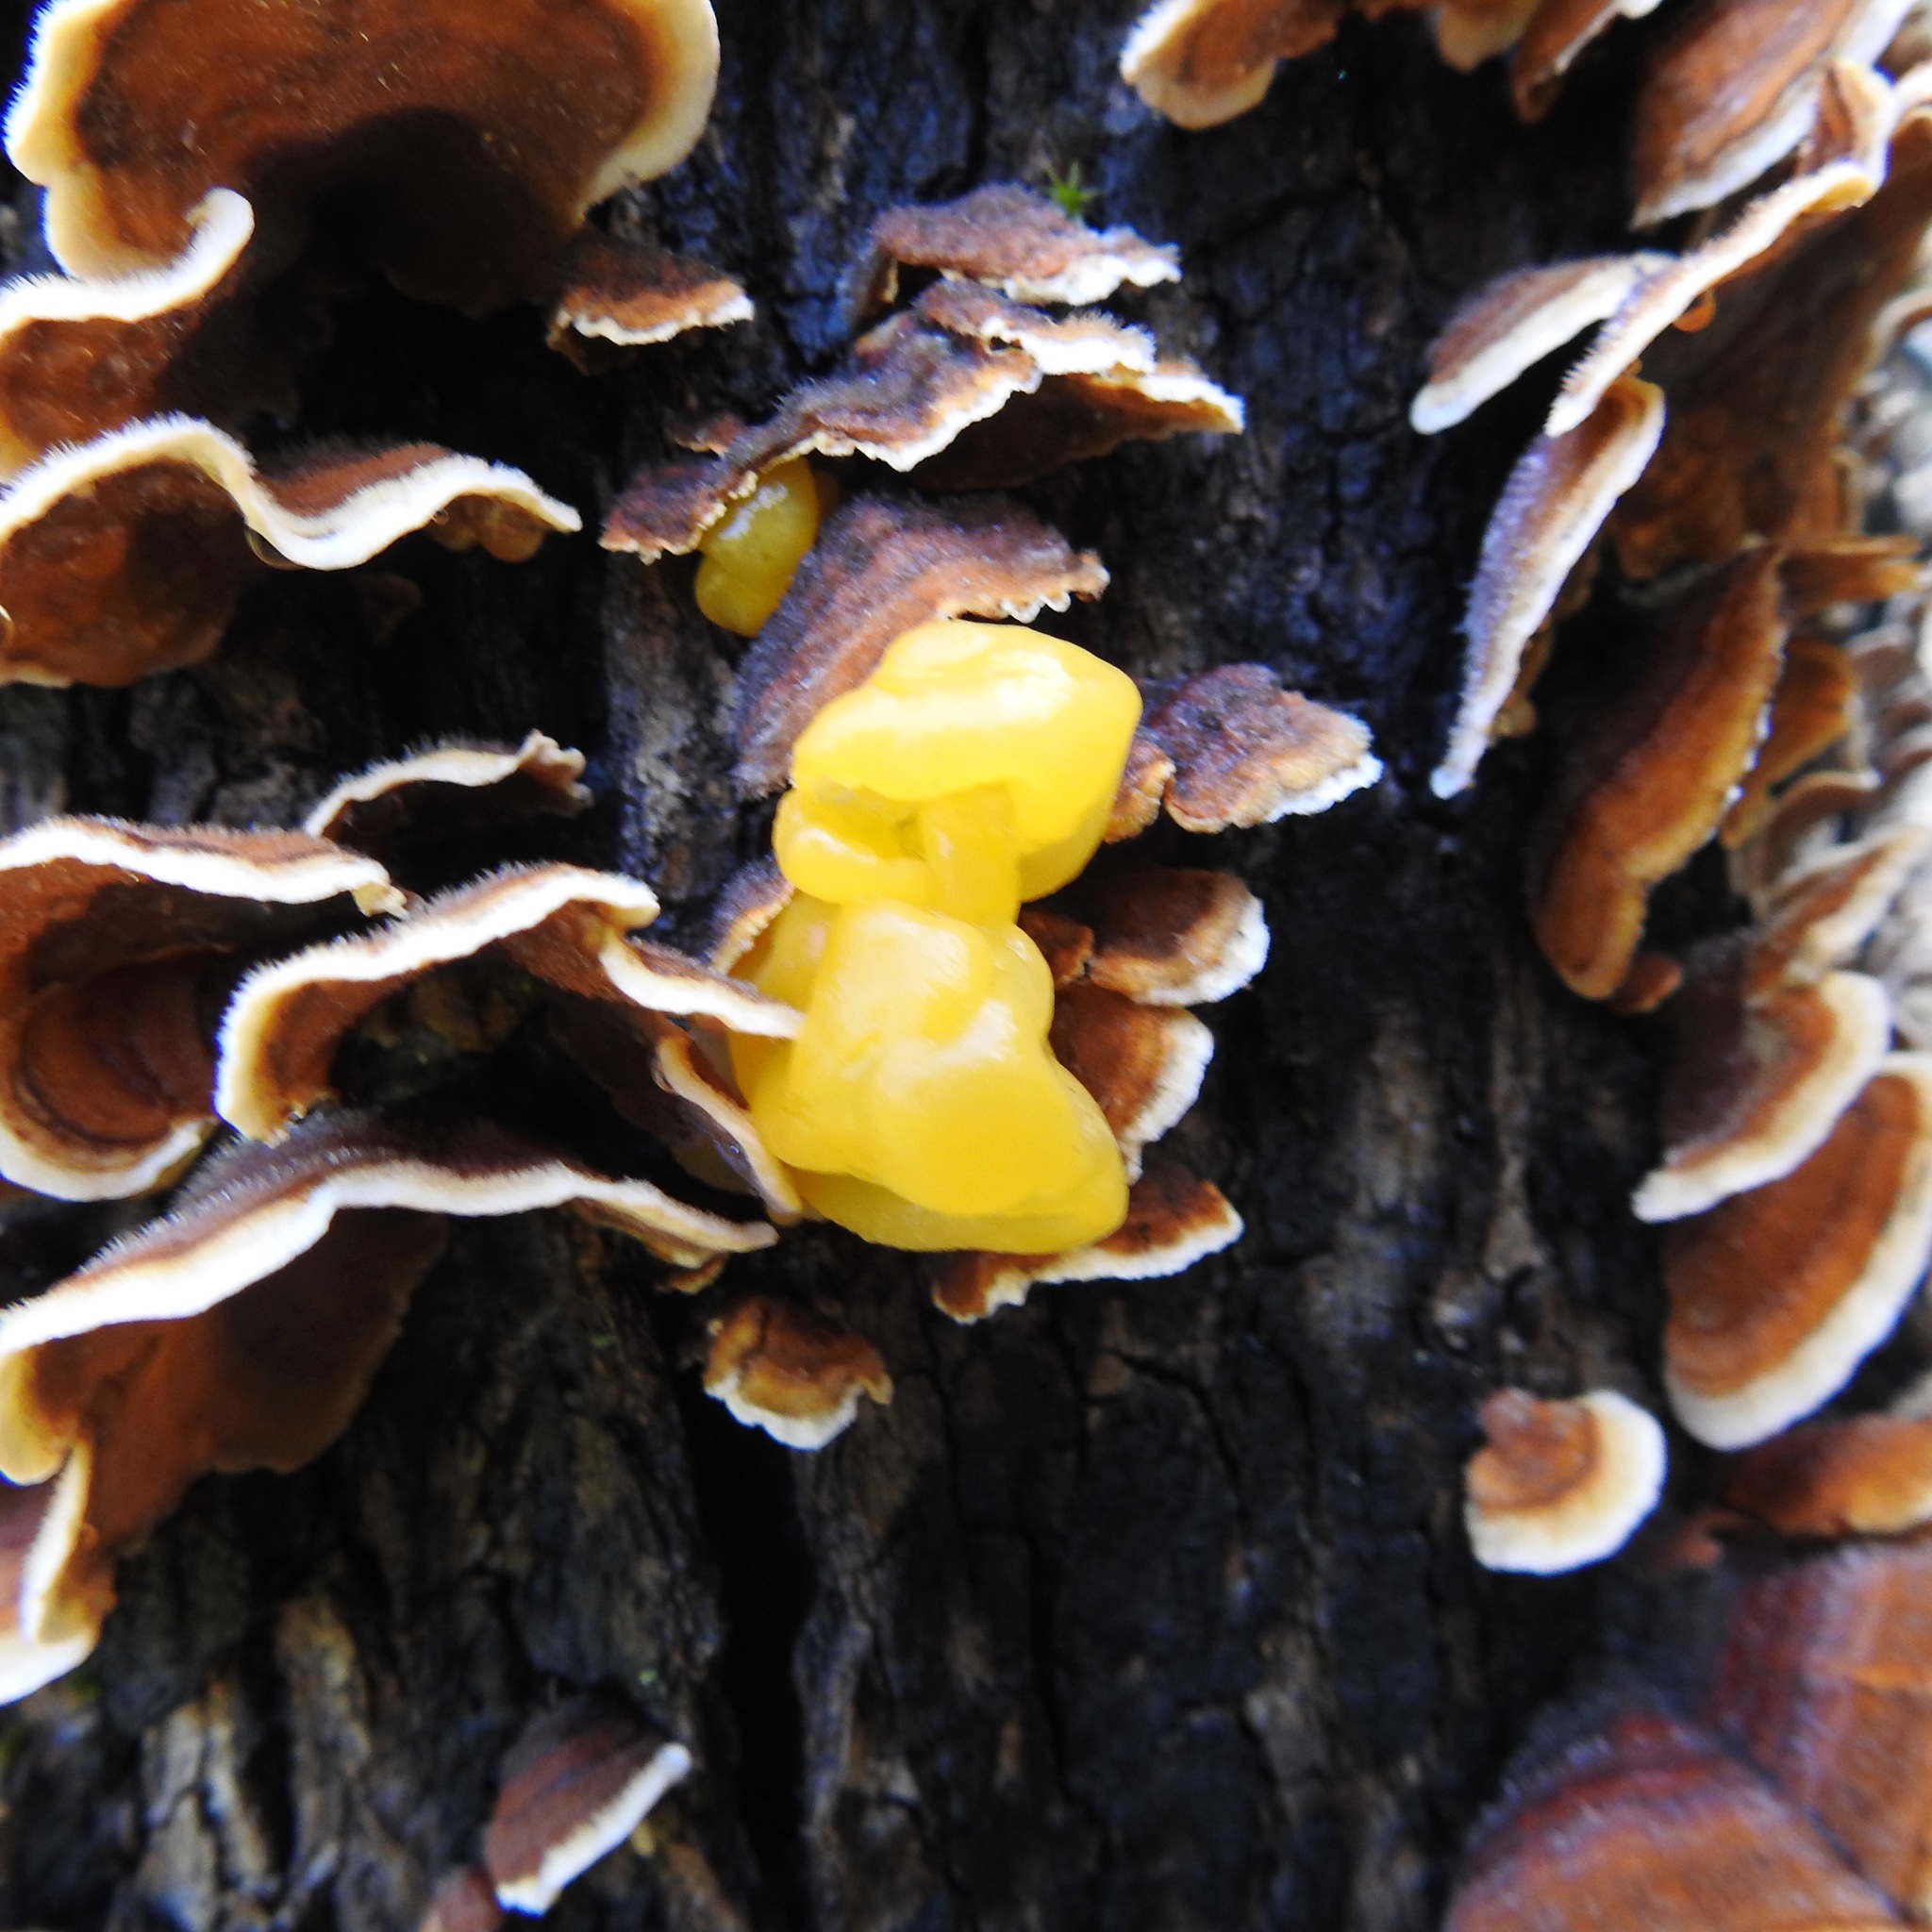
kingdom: Fungi
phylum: Basidiomycota
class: Tremellomycetes
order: Tremellales
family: Naemateliaceae
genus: Naematelia
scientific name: Naematelia aurantia
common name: Golden ear
